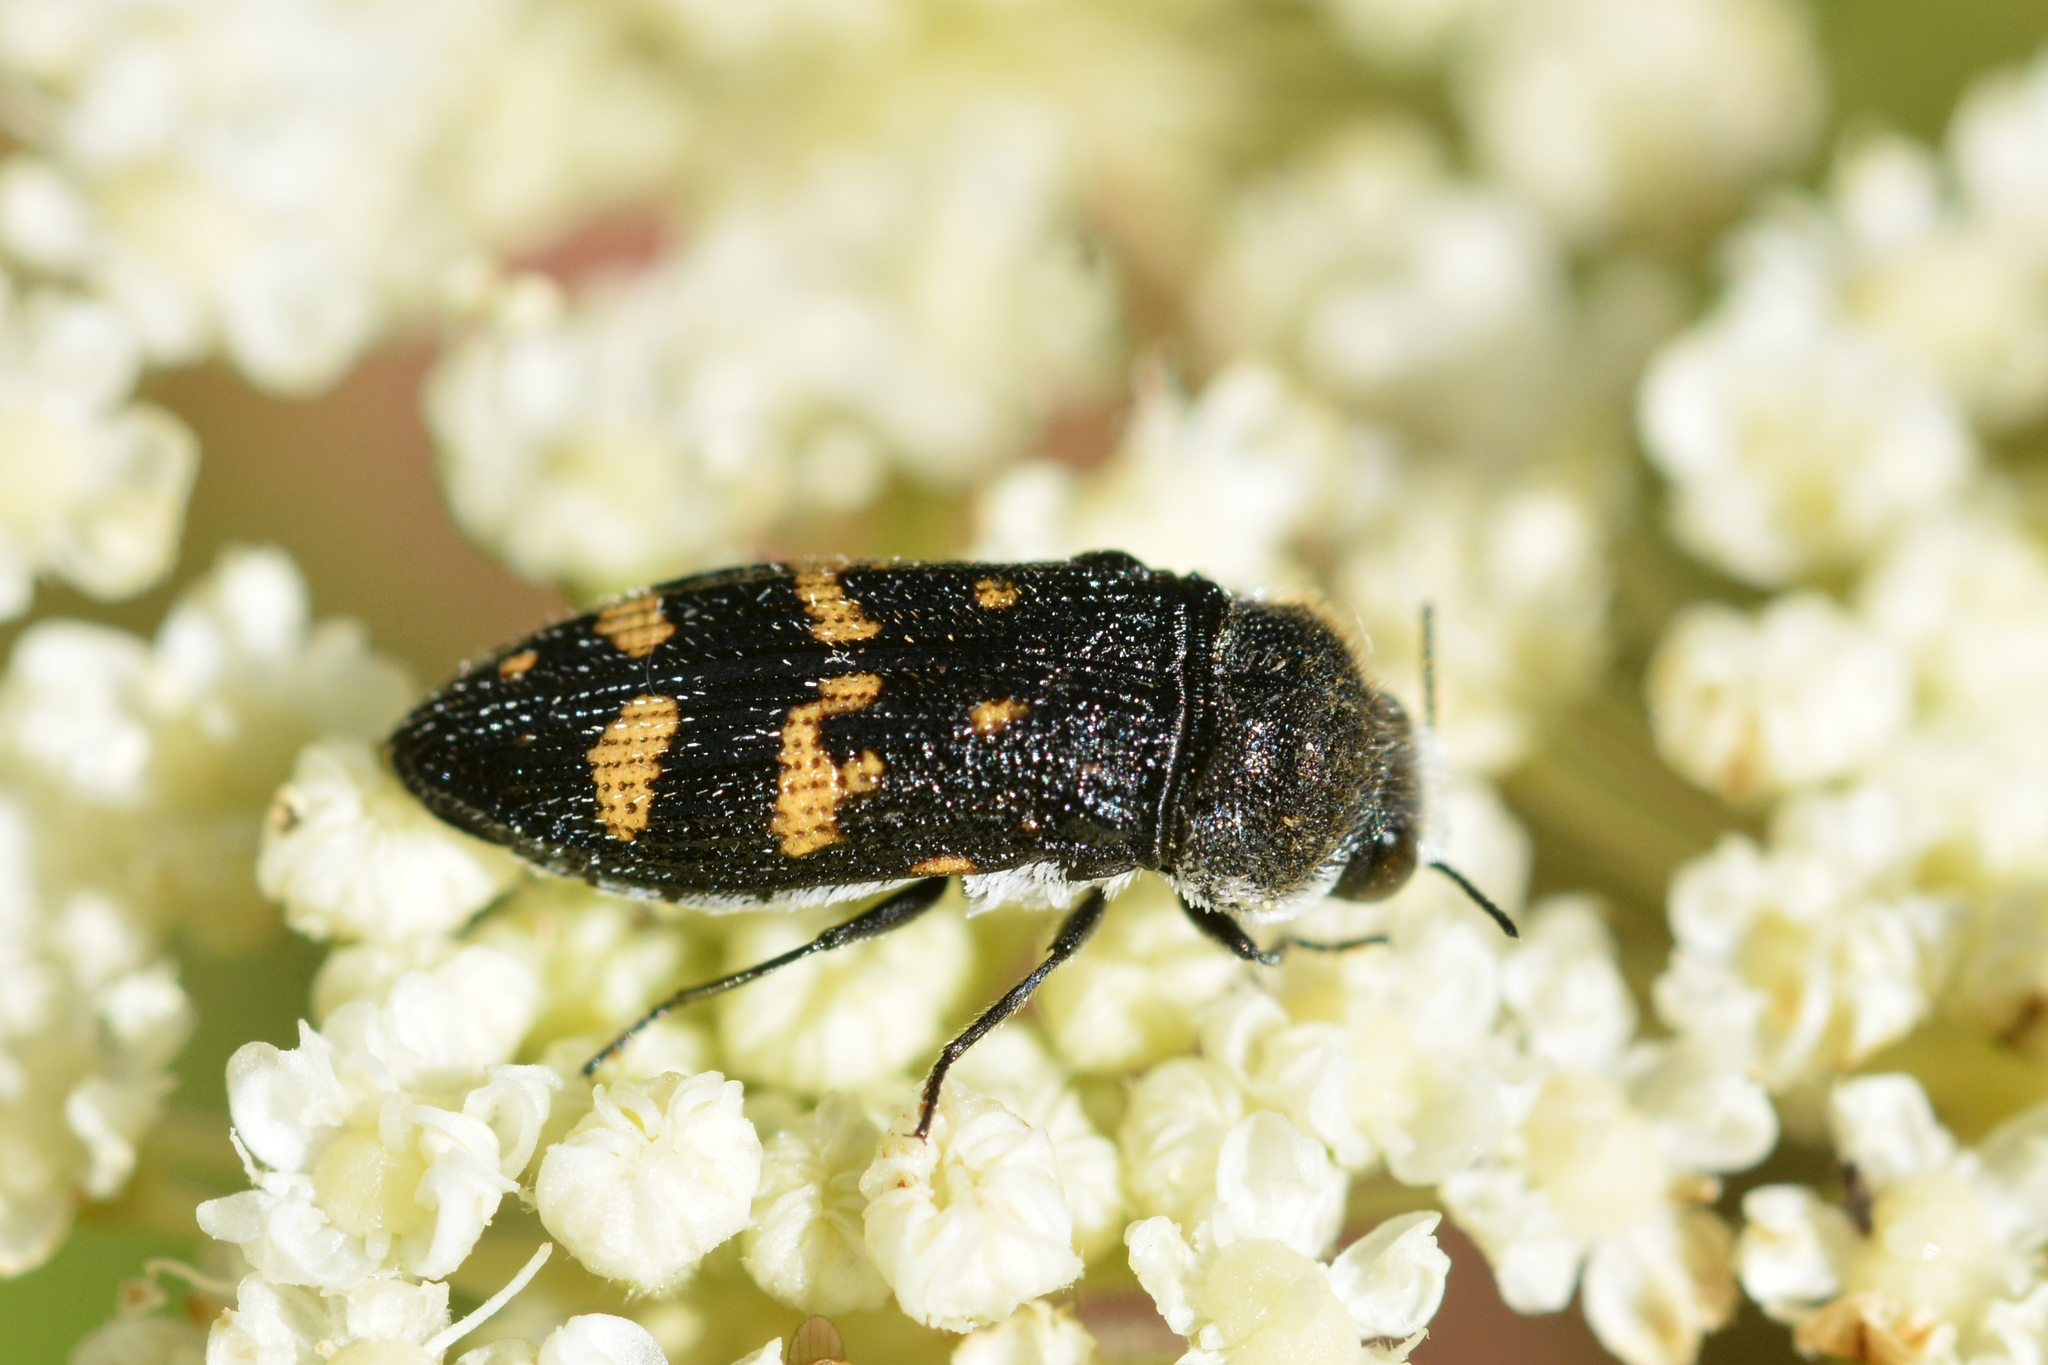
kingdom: Animalia
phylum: Arthropoda
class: Insecta
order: Coleoptera
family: Buprestidae
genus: Acmaeoderella
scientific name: Acmaeoderella flavofasciata
